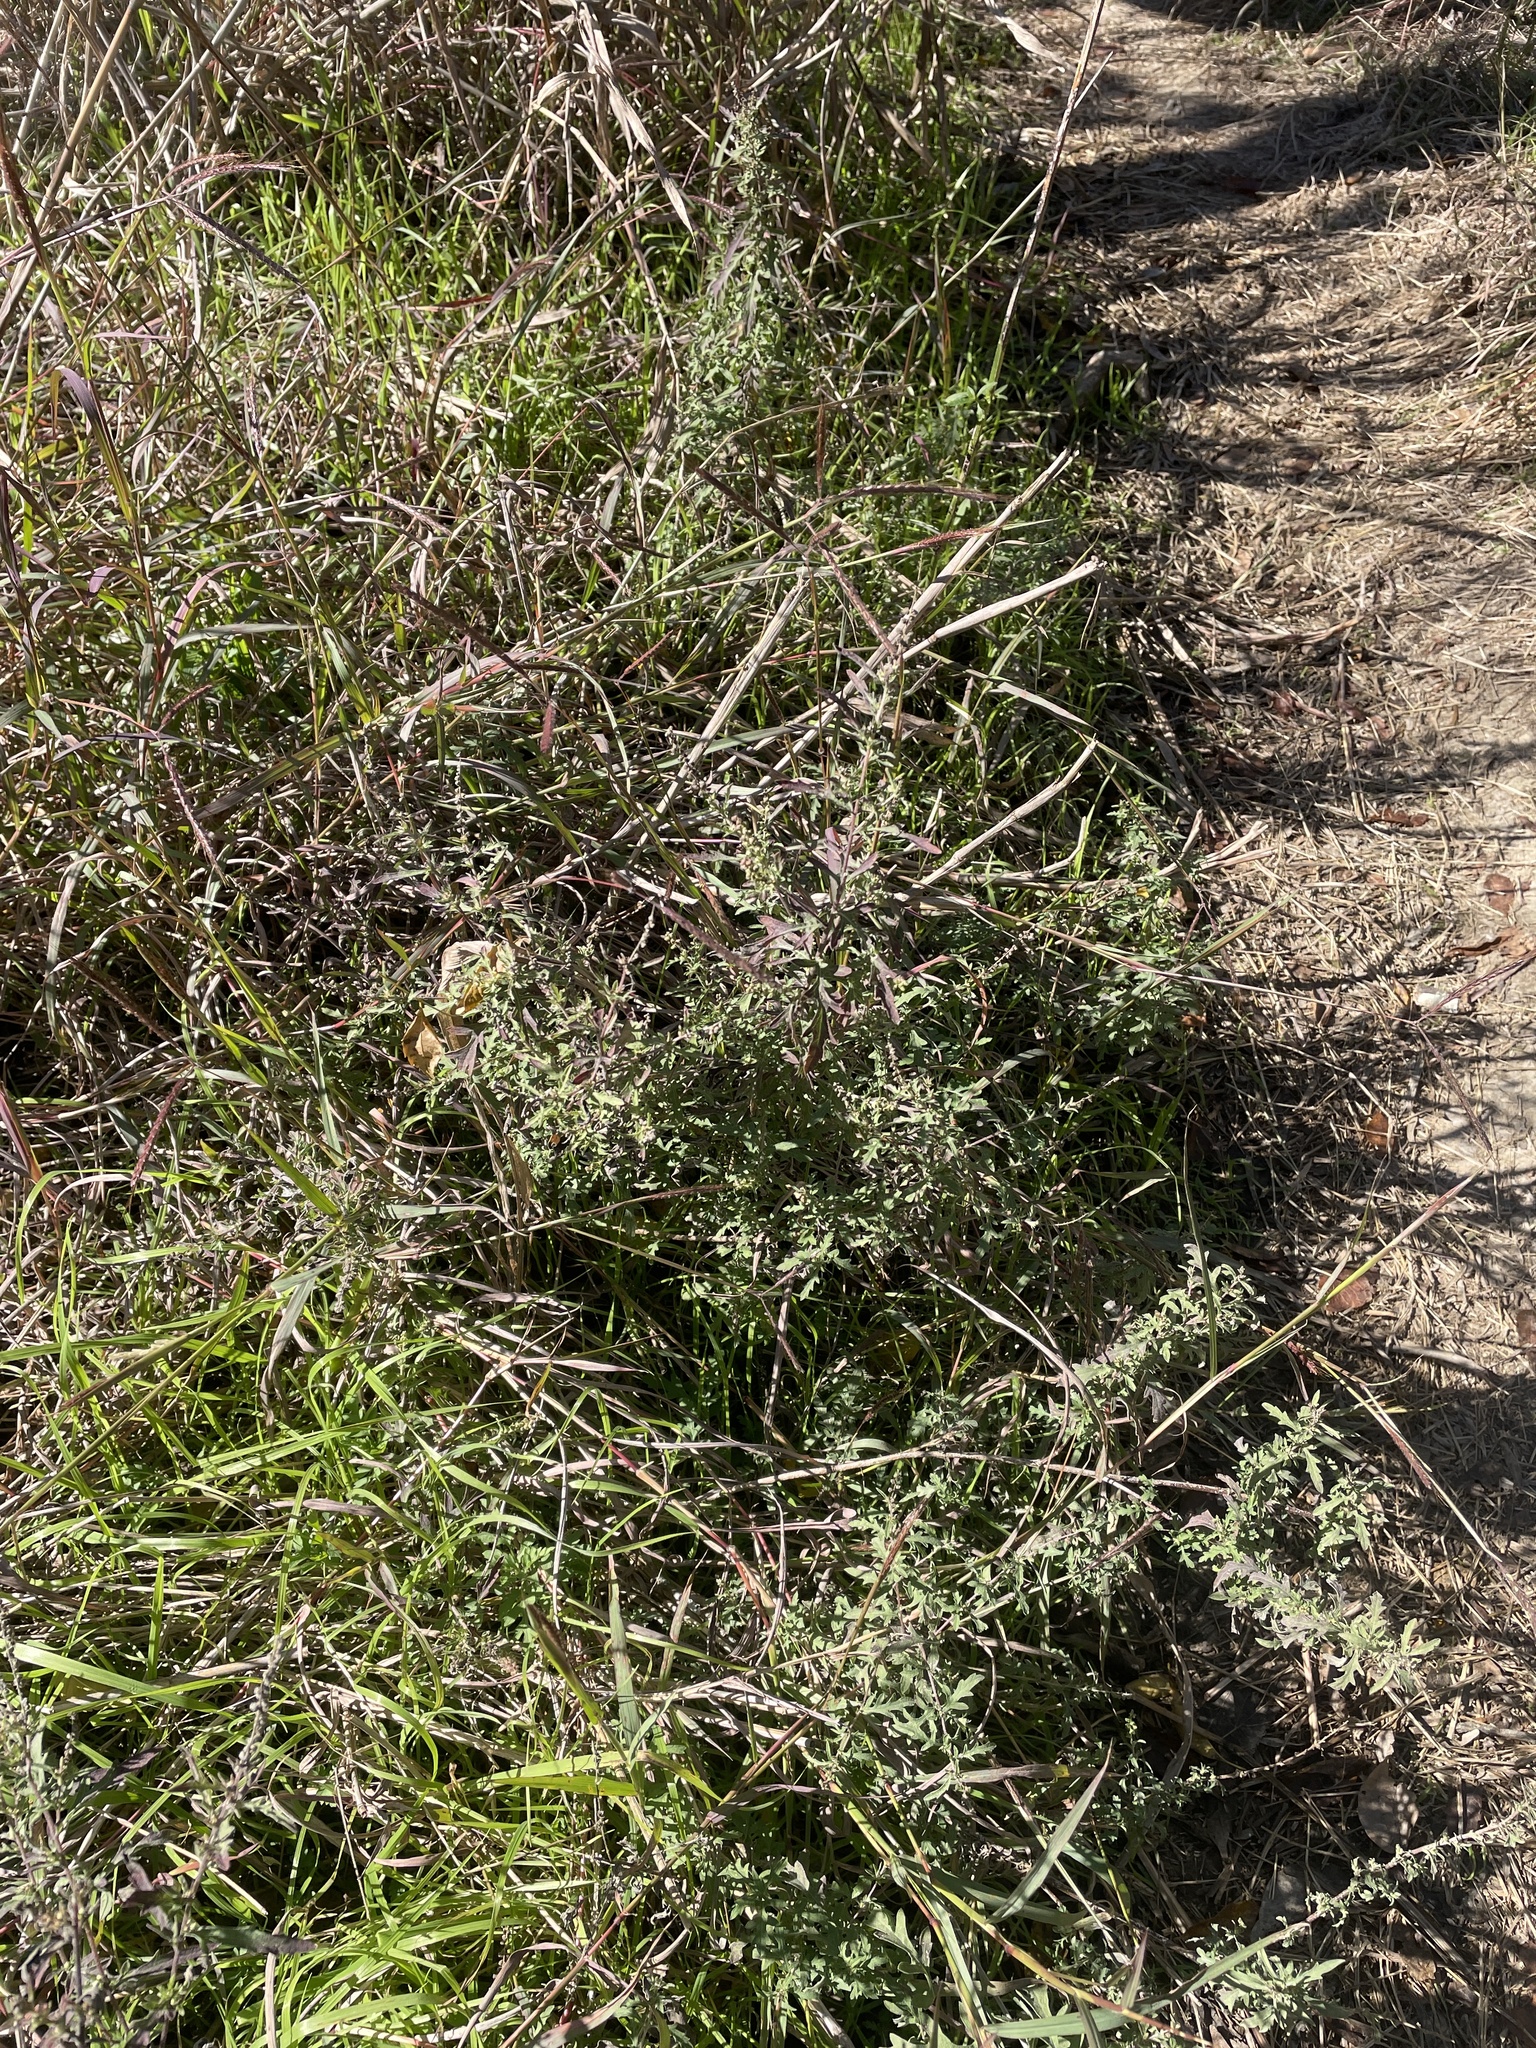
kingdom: Plantae
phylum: Tracheophyta
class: Magnoliopsida
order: Asterales
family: Asteraceae
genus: Ambrosia
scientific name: Ambrosia psilostachya
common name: Perennial ragweed
